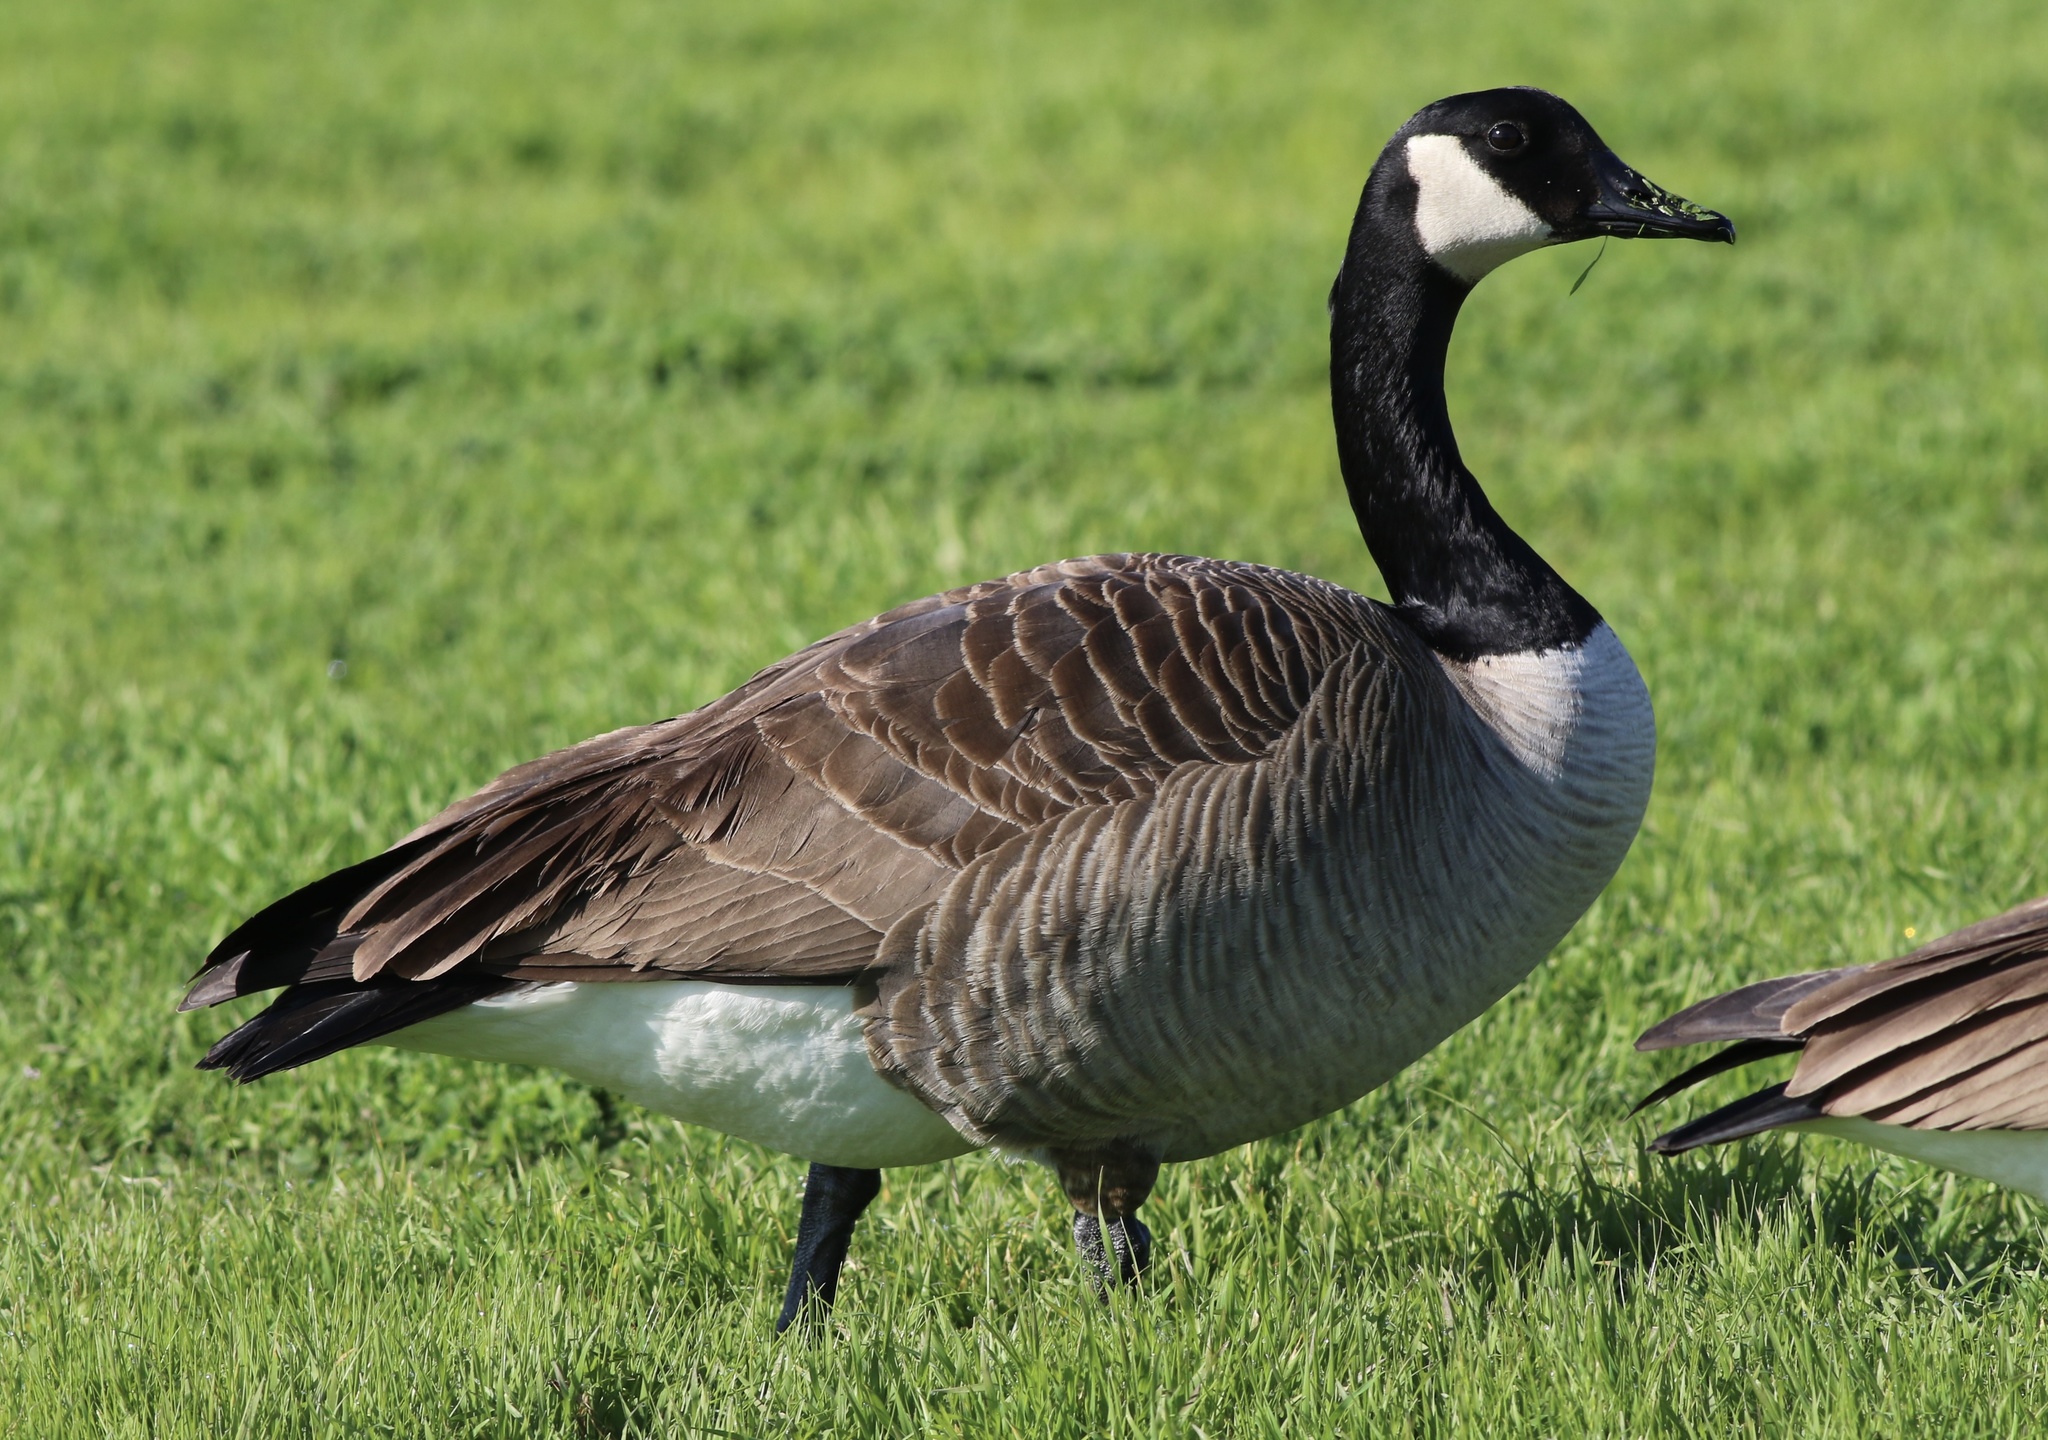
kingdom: Animalia
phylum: Chordata
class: Aves
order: Anseriformes
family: Anatidae
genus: Branta
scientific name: Branta canadensis
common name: Canada goose
